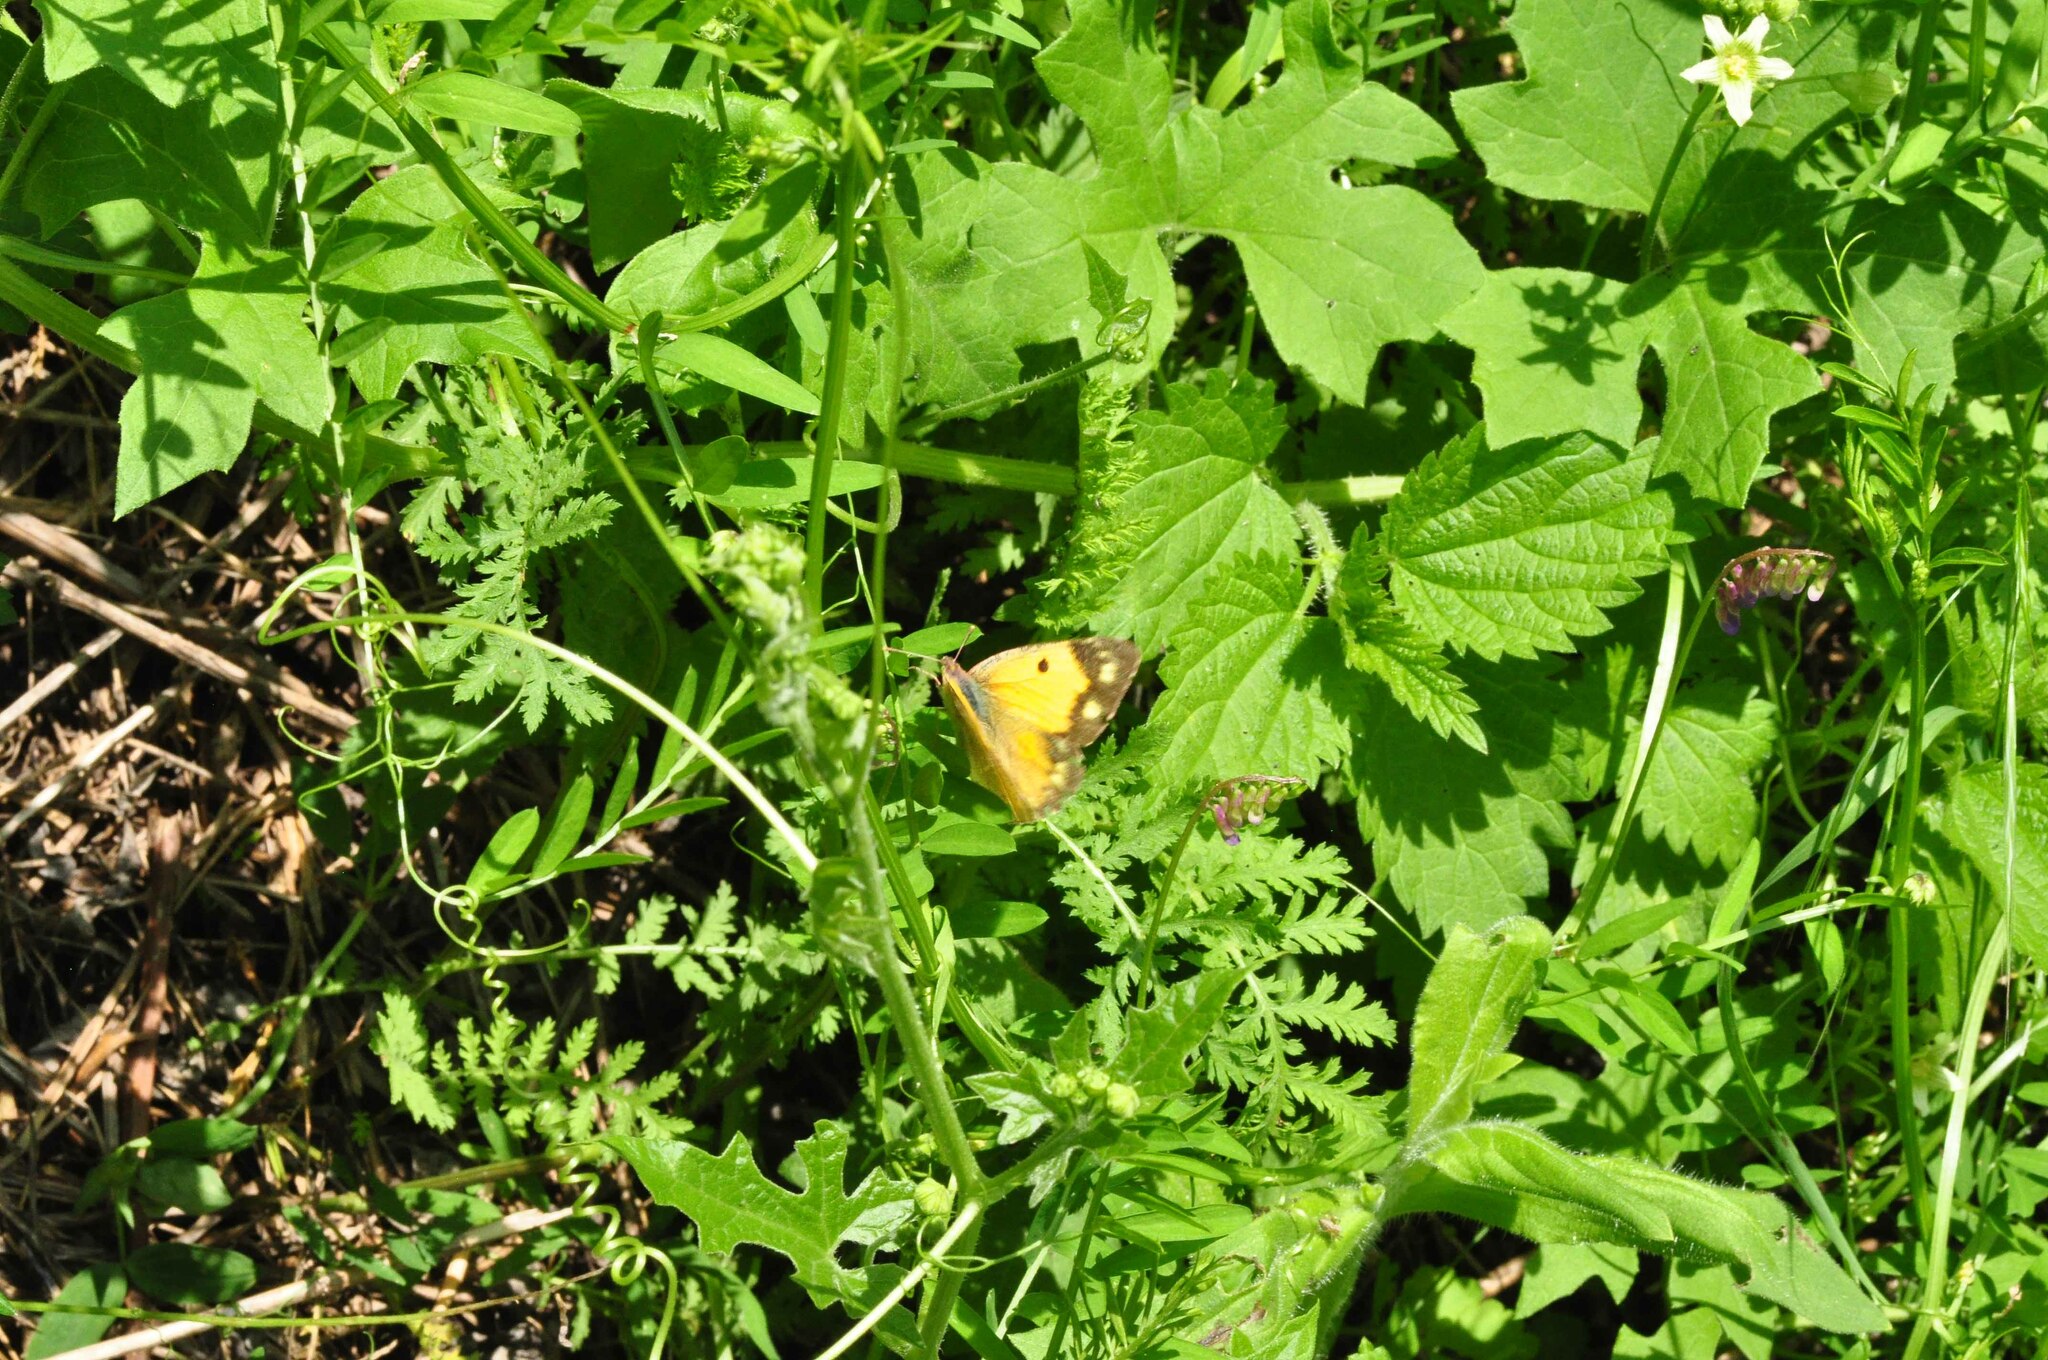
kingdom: Animalia
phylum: Arthropoda
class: Insecta
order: Lepidoptera
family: Pieridae
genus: Colias
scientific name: Colias croceus
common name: Clouded yellow
